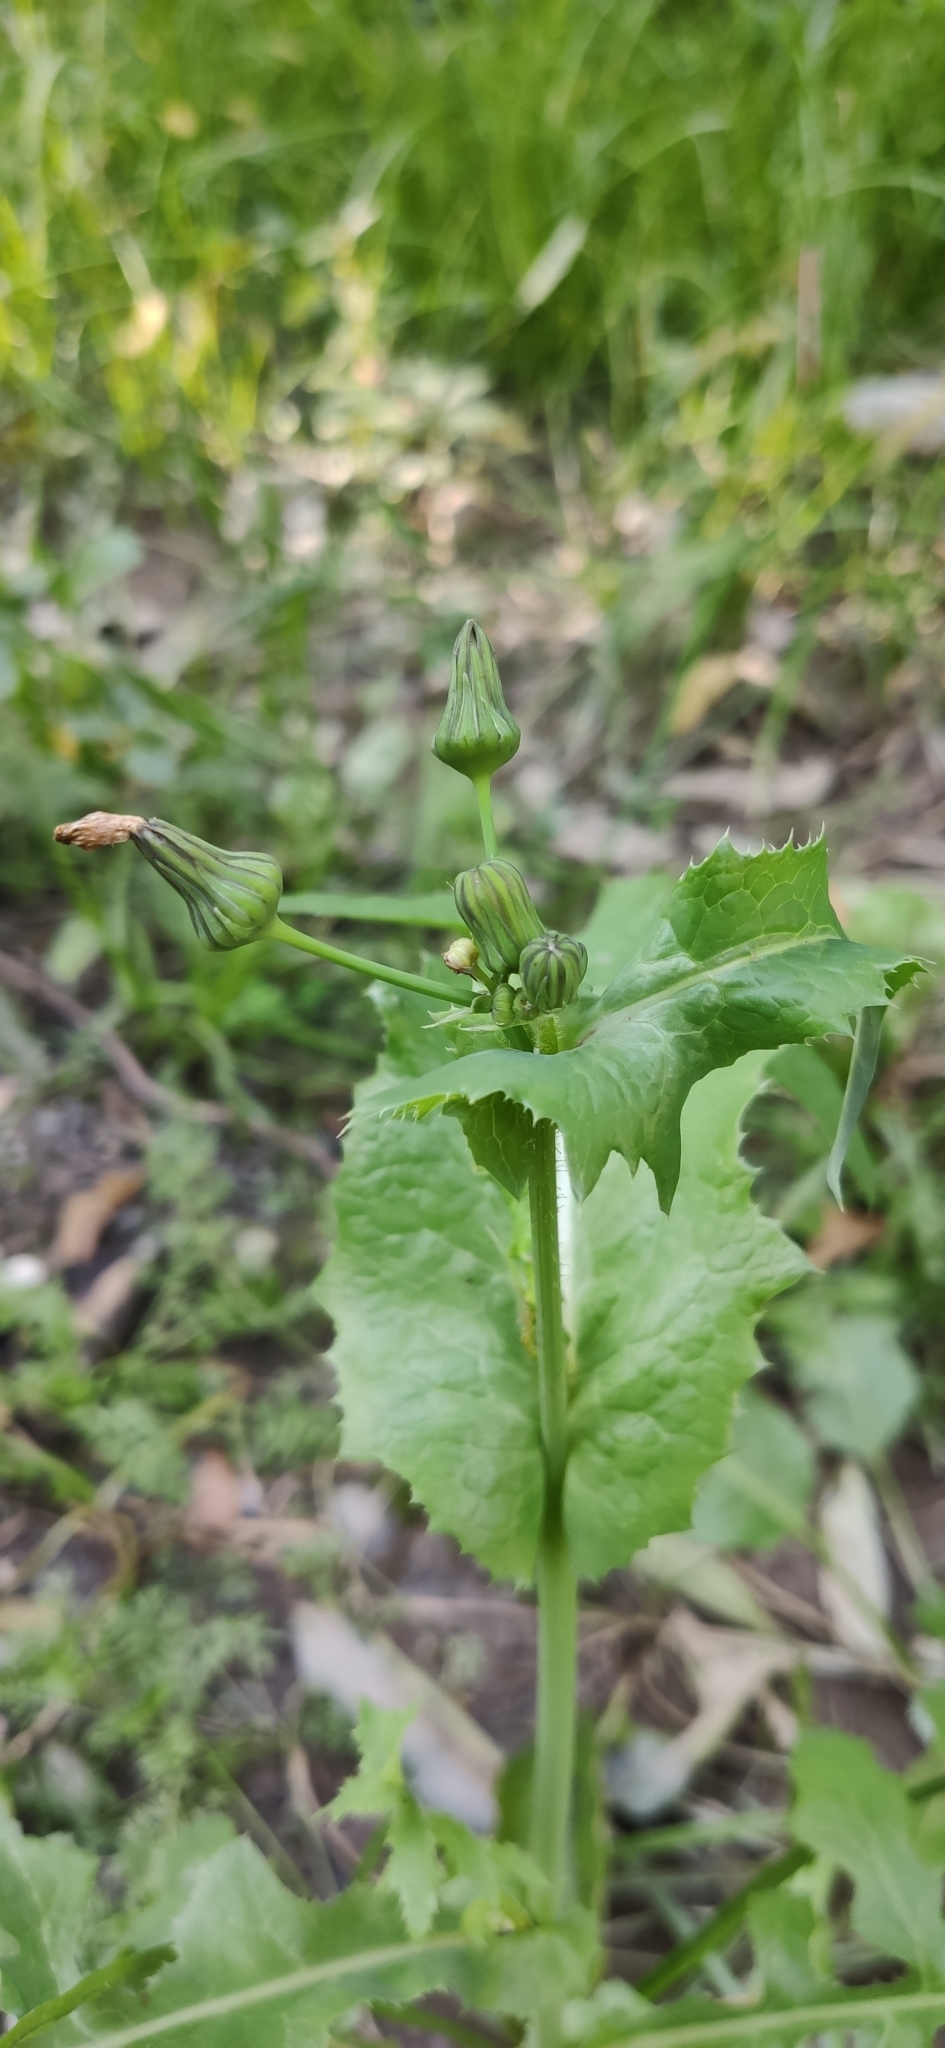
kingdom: Plantae
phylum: Tracheophyta
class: Magnoliopsida
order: Asterales
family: Asteraceae
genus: Sonchus
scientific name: Sonchus oleraceus
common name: Common sowthistle
